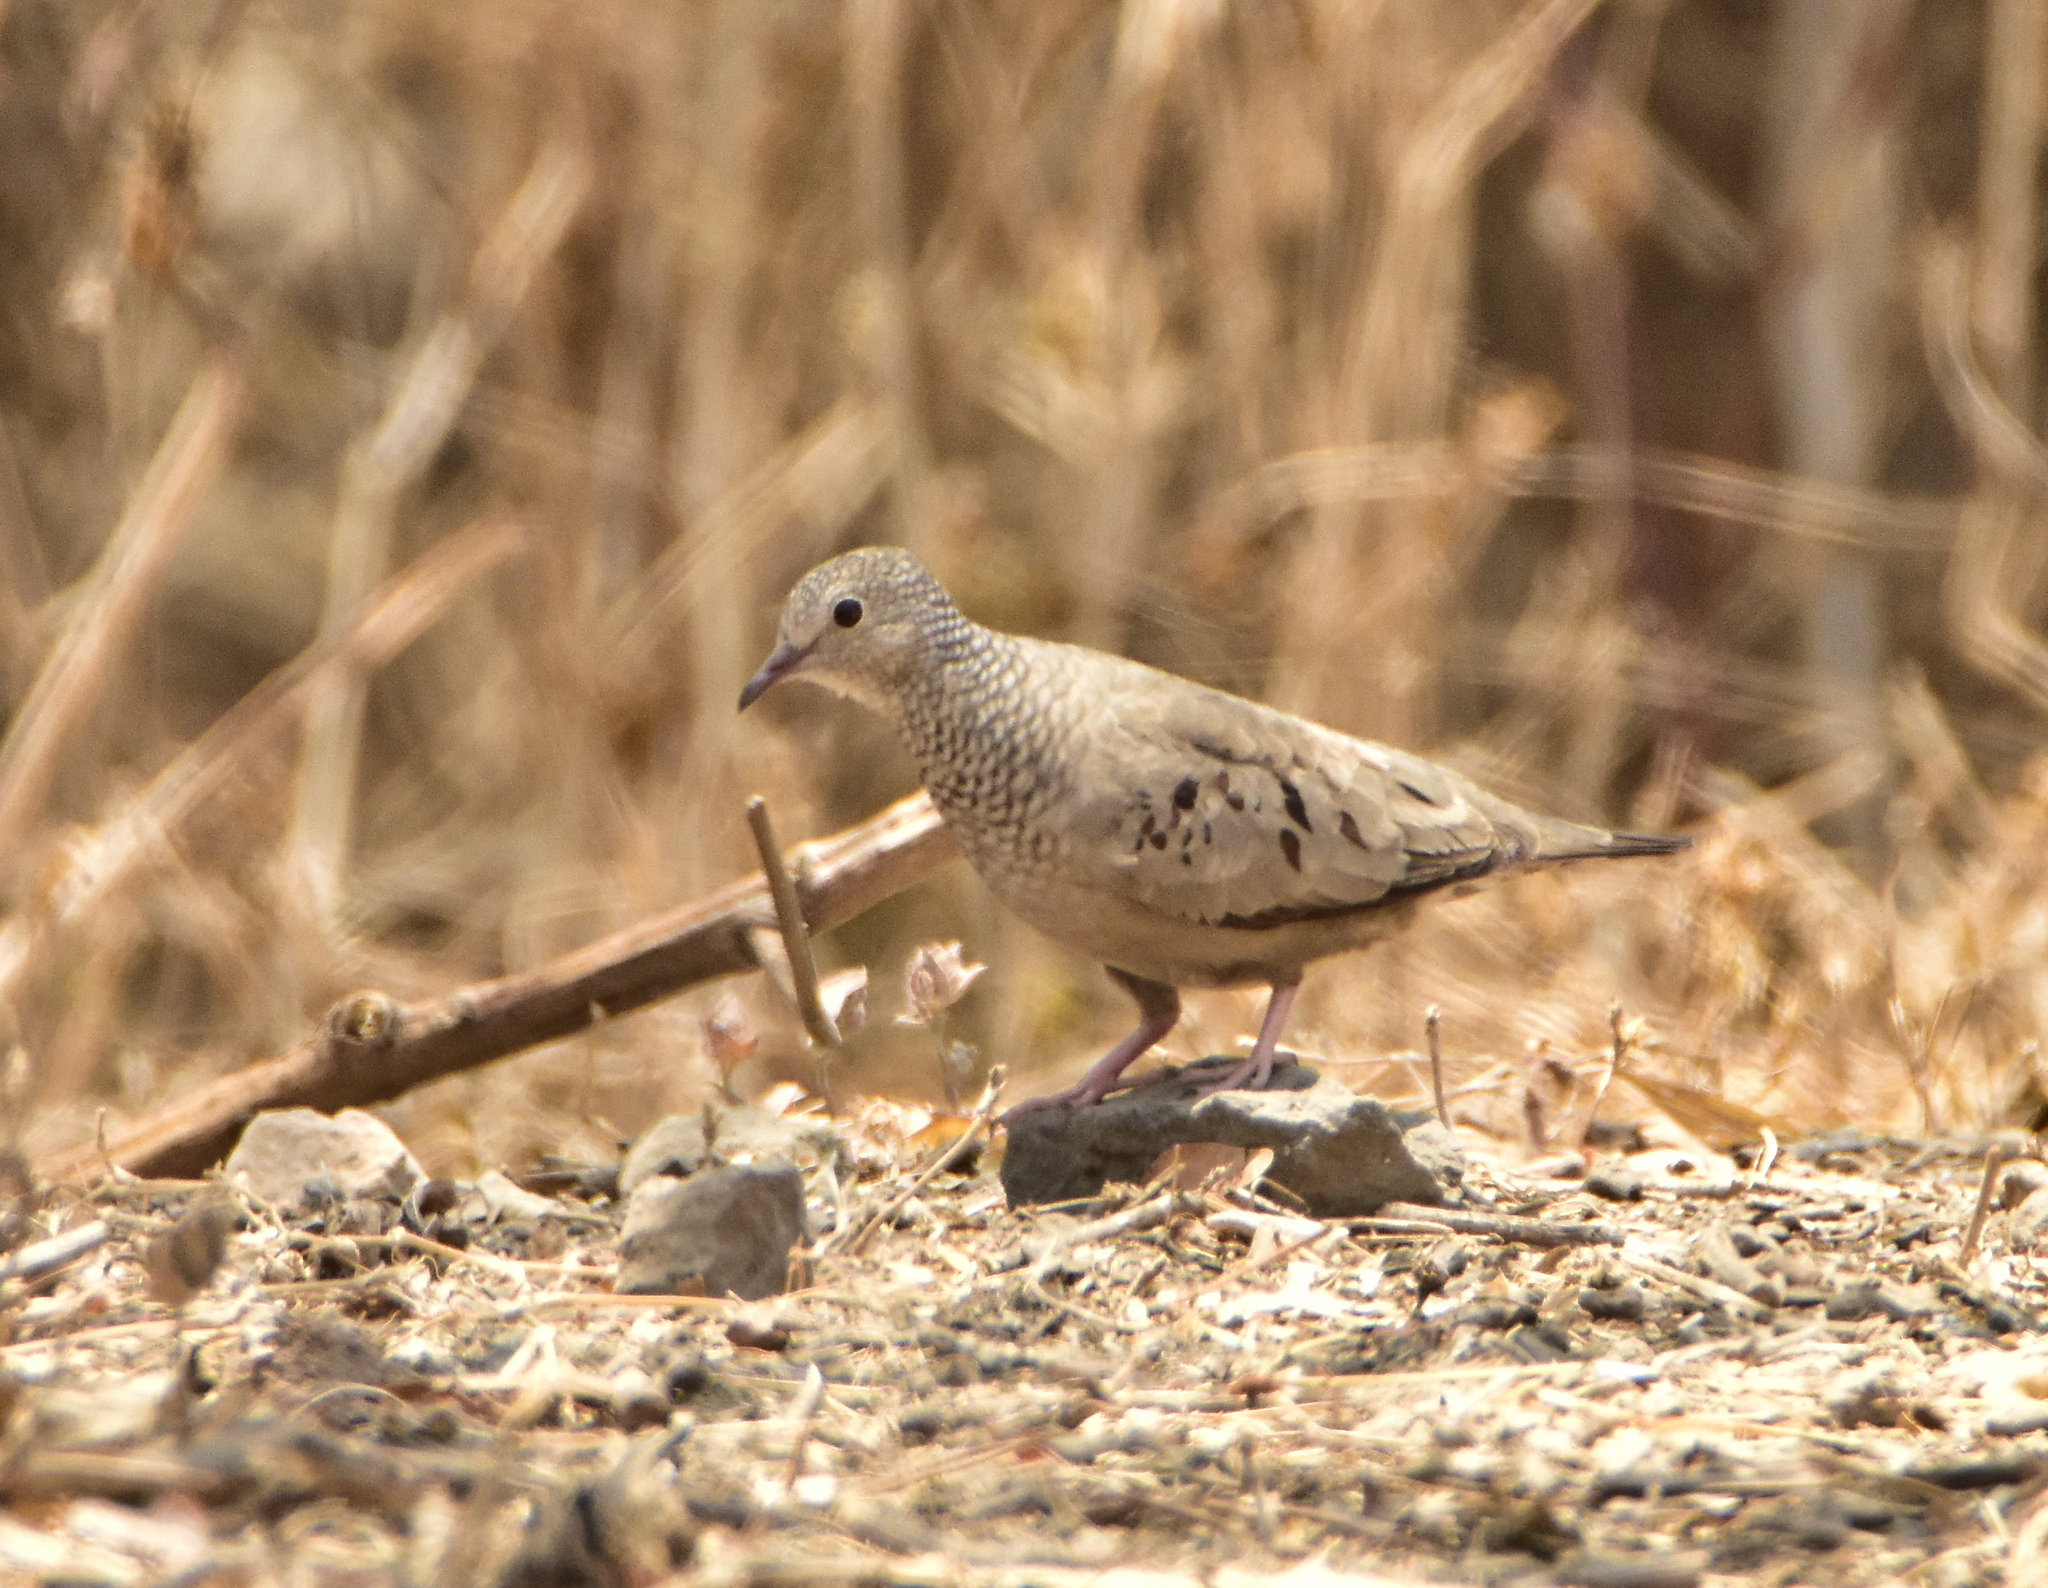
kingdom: Animalia
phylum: Chordata
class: Aves
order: Columbiformes
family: Columbidae
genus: Columbina
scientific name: Columbina passerina
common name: Common ground-dove
